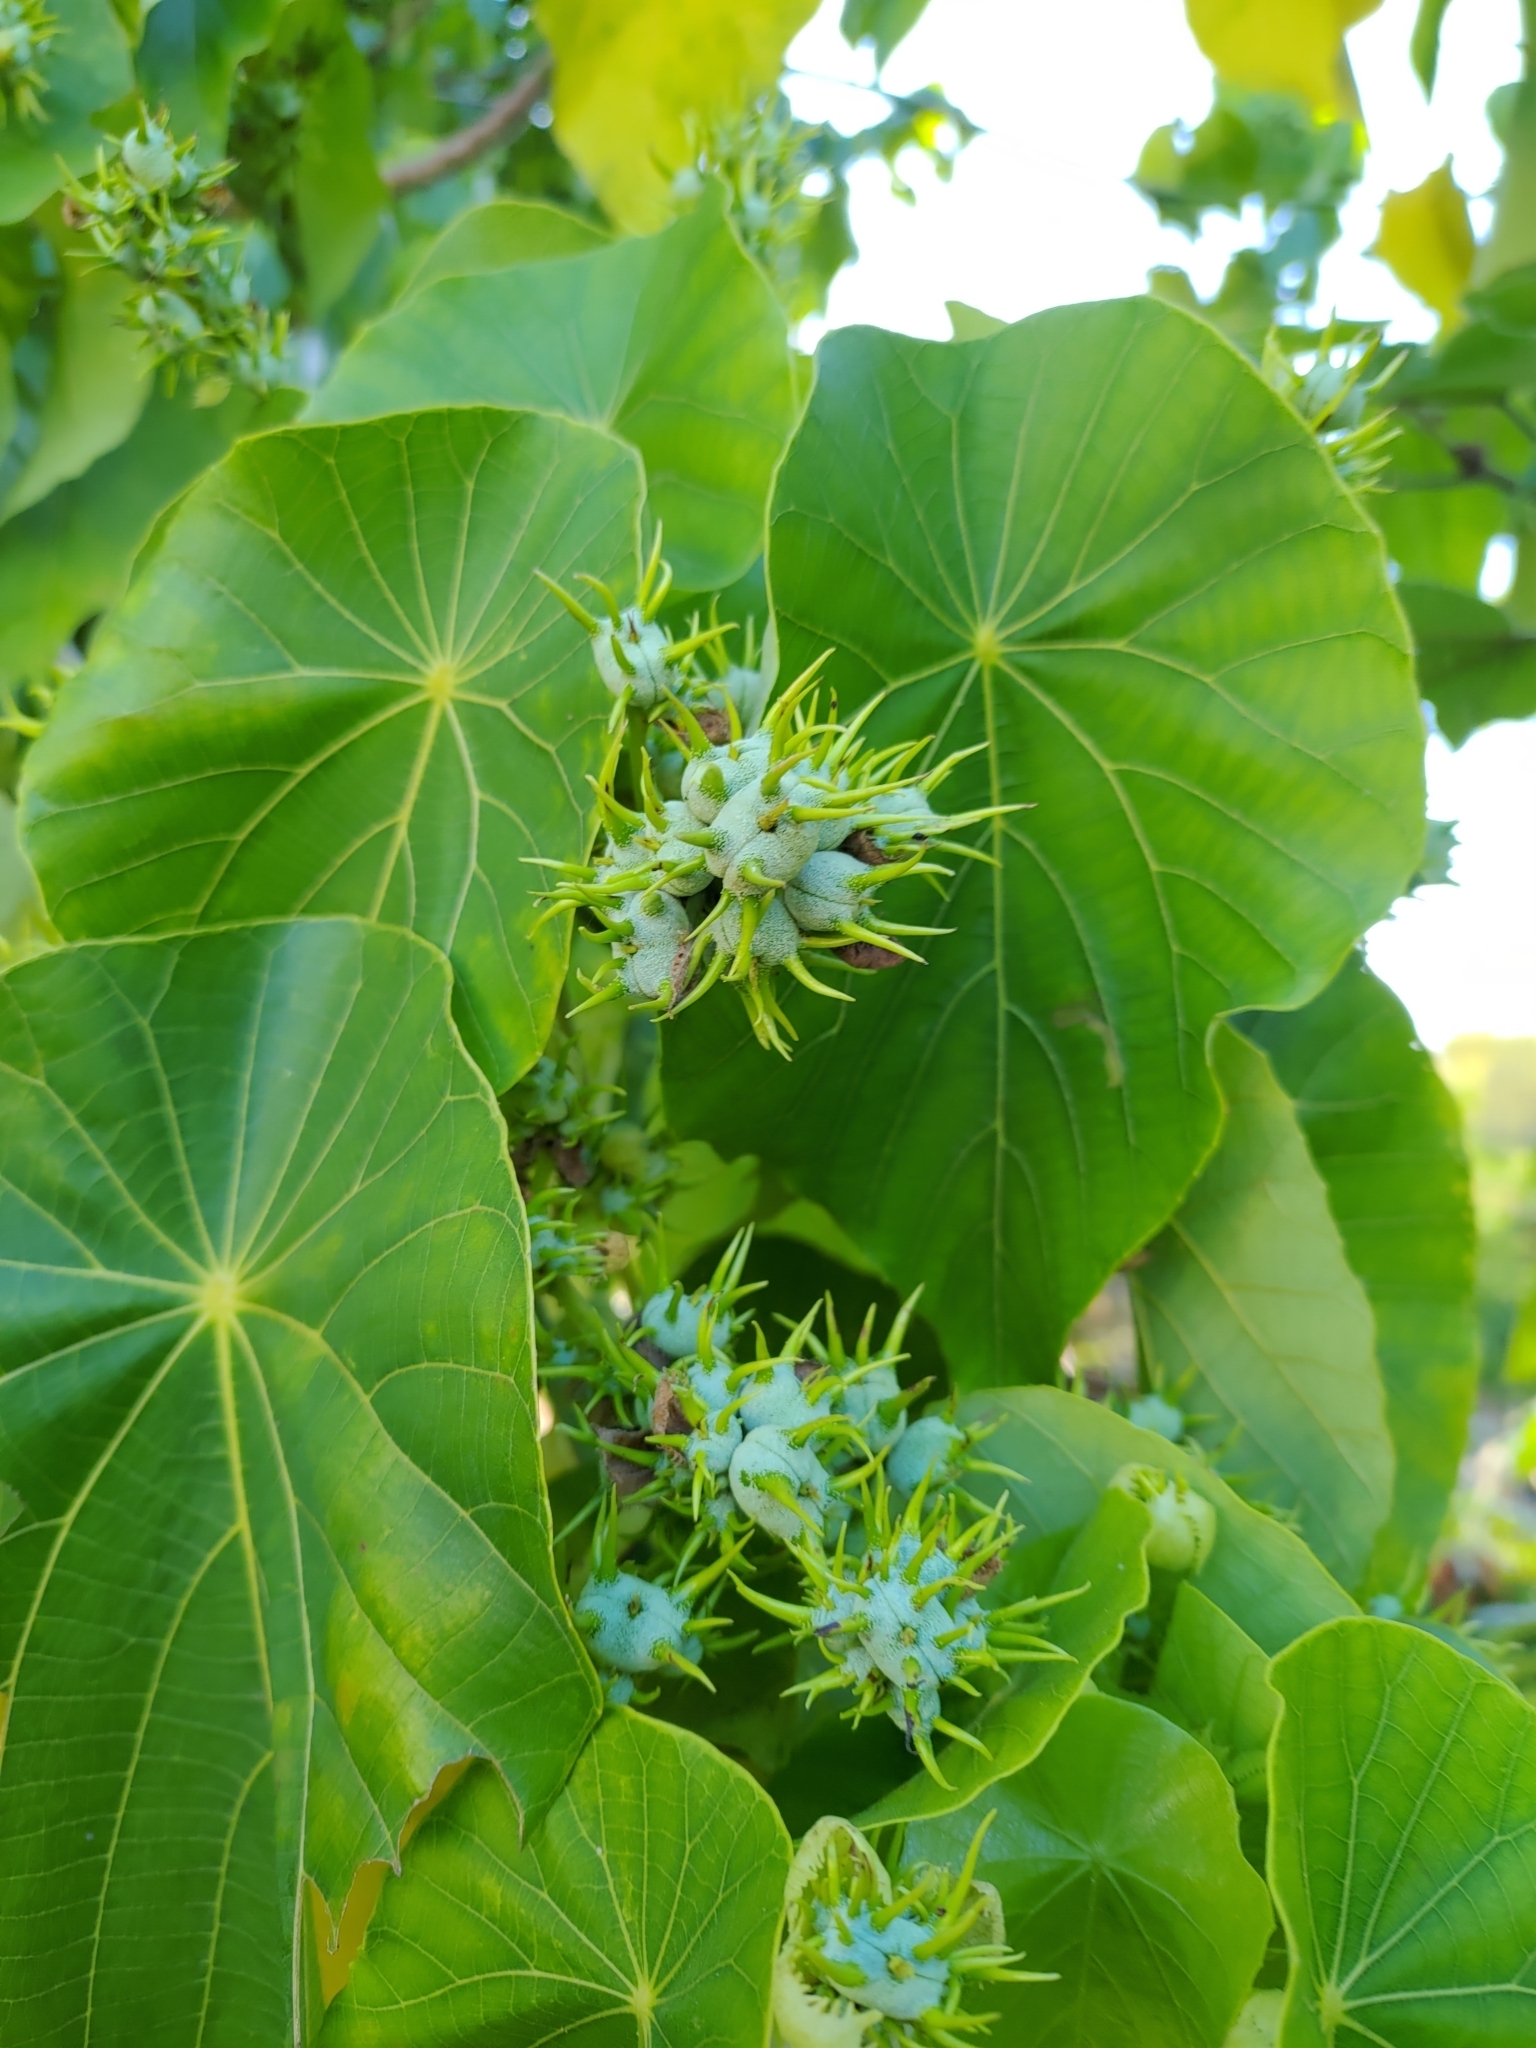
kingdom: Plantae
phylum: Tracheophyta
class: Magnoliopsida
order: Malpighiales
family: Euphorbiaceae
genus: Macaranga
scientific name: Macaranga tanarius
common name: Parasol leaf tree
